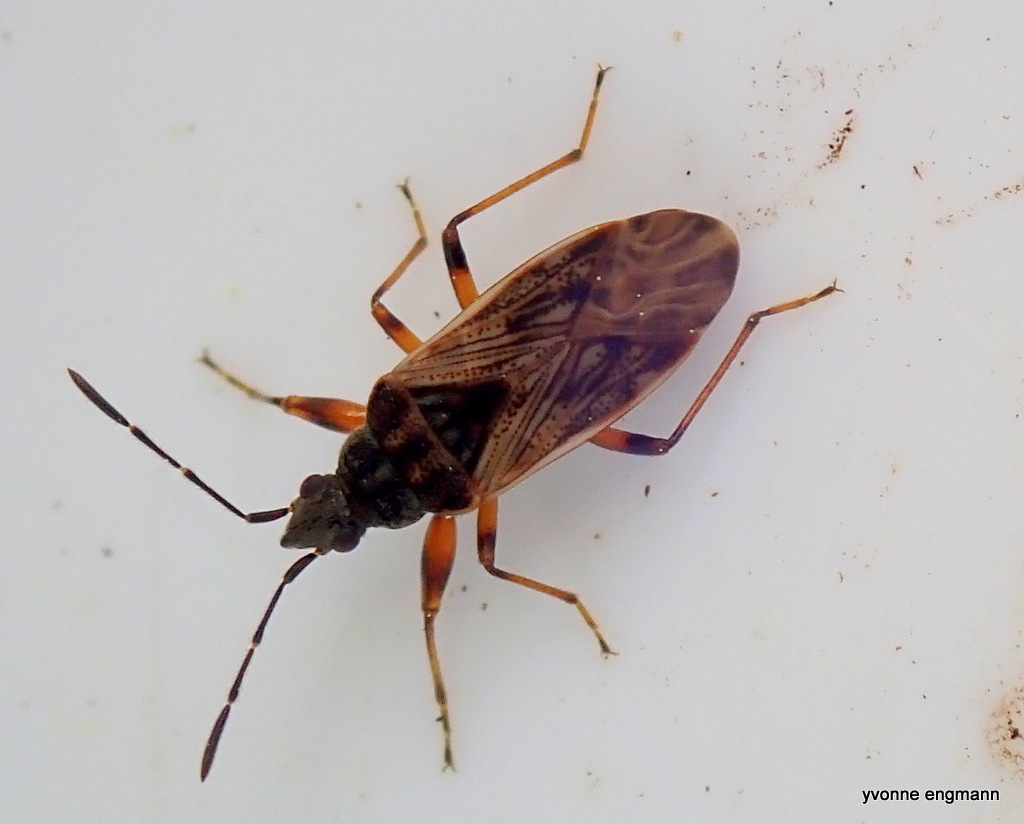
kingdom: Animalia
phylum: Arthropoda
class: Insecta
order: Hemiptera
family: Rhyparochromidae
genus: Pachybrachius
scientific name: Pachybrachius fracticollis
